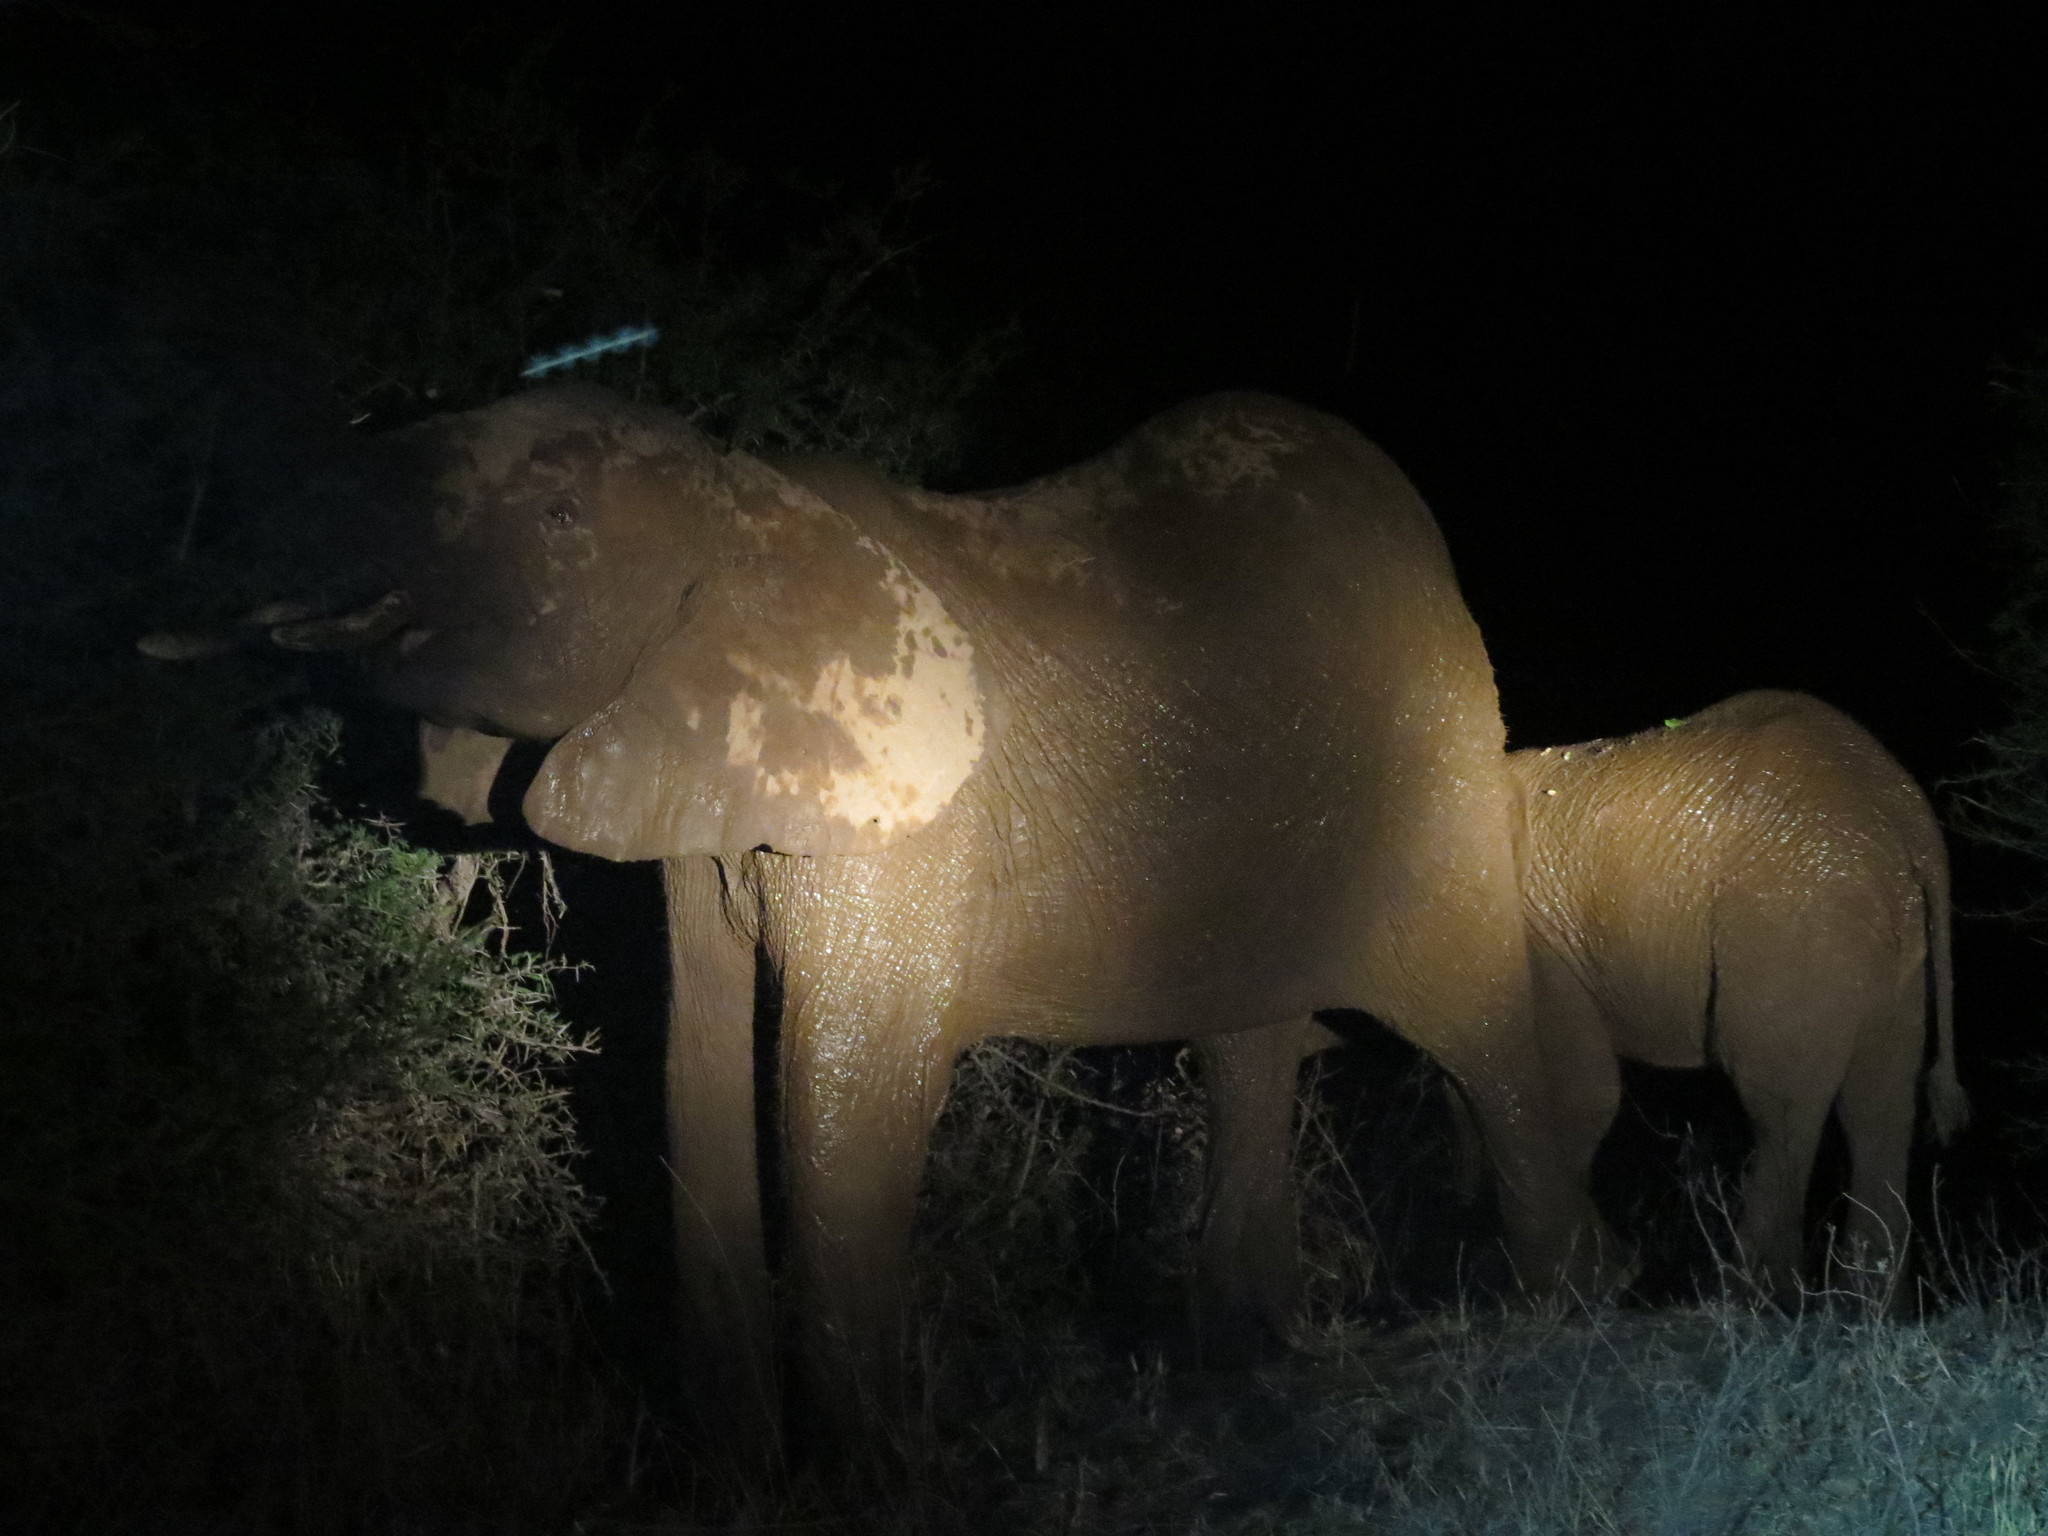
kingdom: Animalia
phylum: Chordata
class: Mammalia
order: Proboscidea
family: Elephantidae
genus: Loxodonta
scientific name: Loxodonta africana
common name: African elephant
